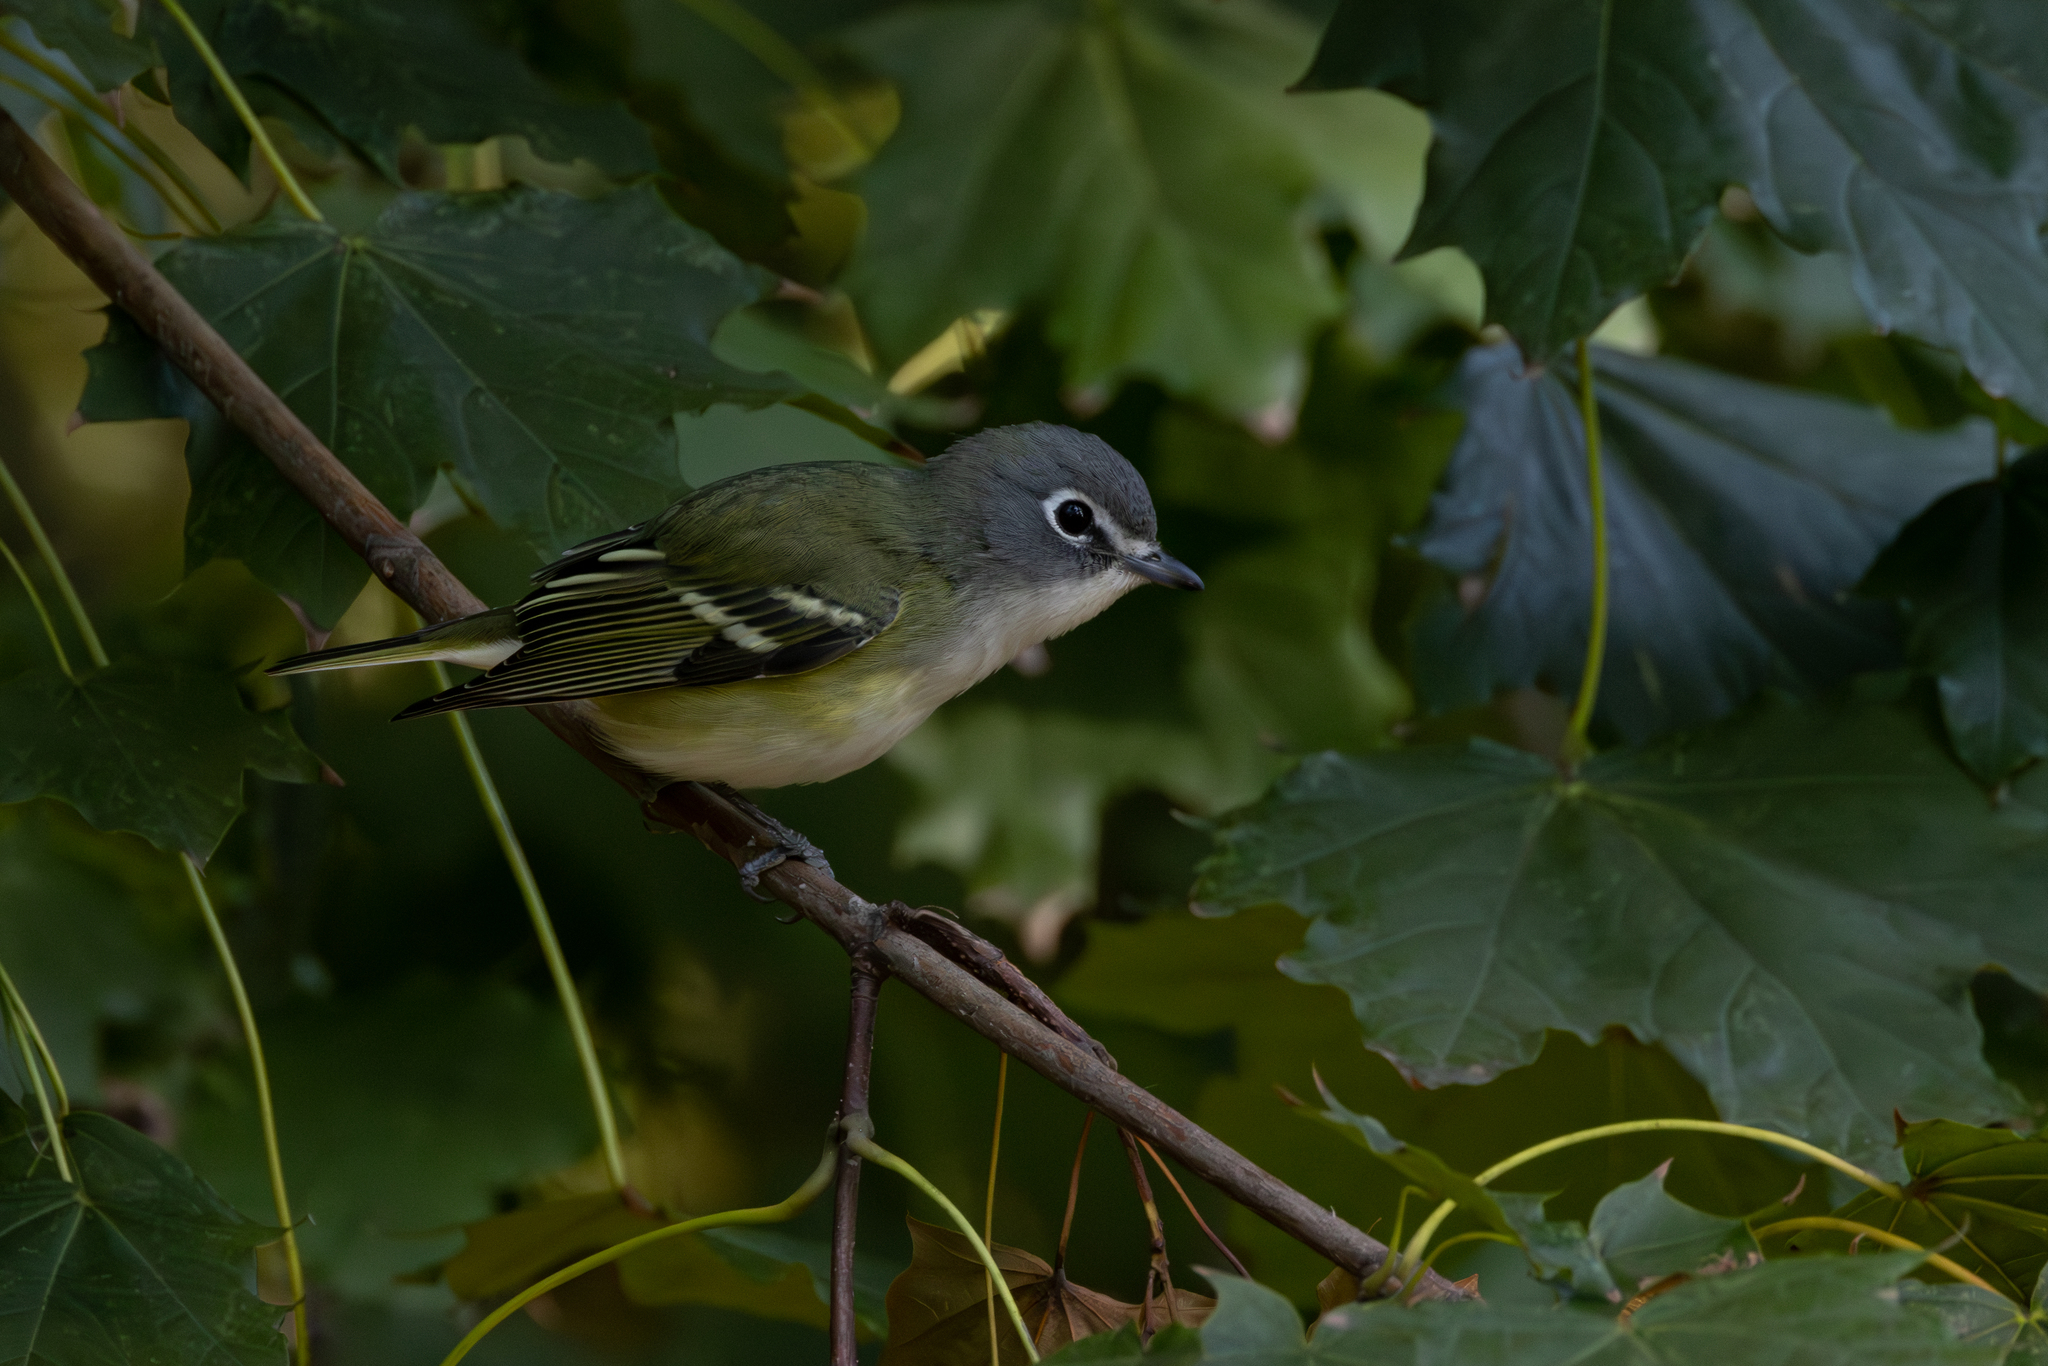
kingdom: Animalia
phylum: Chordata
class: Aves
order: Passeriformes
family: Vireonidae
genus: Vireo
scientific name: Vireo solitarius
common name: Blue-headed vireo
